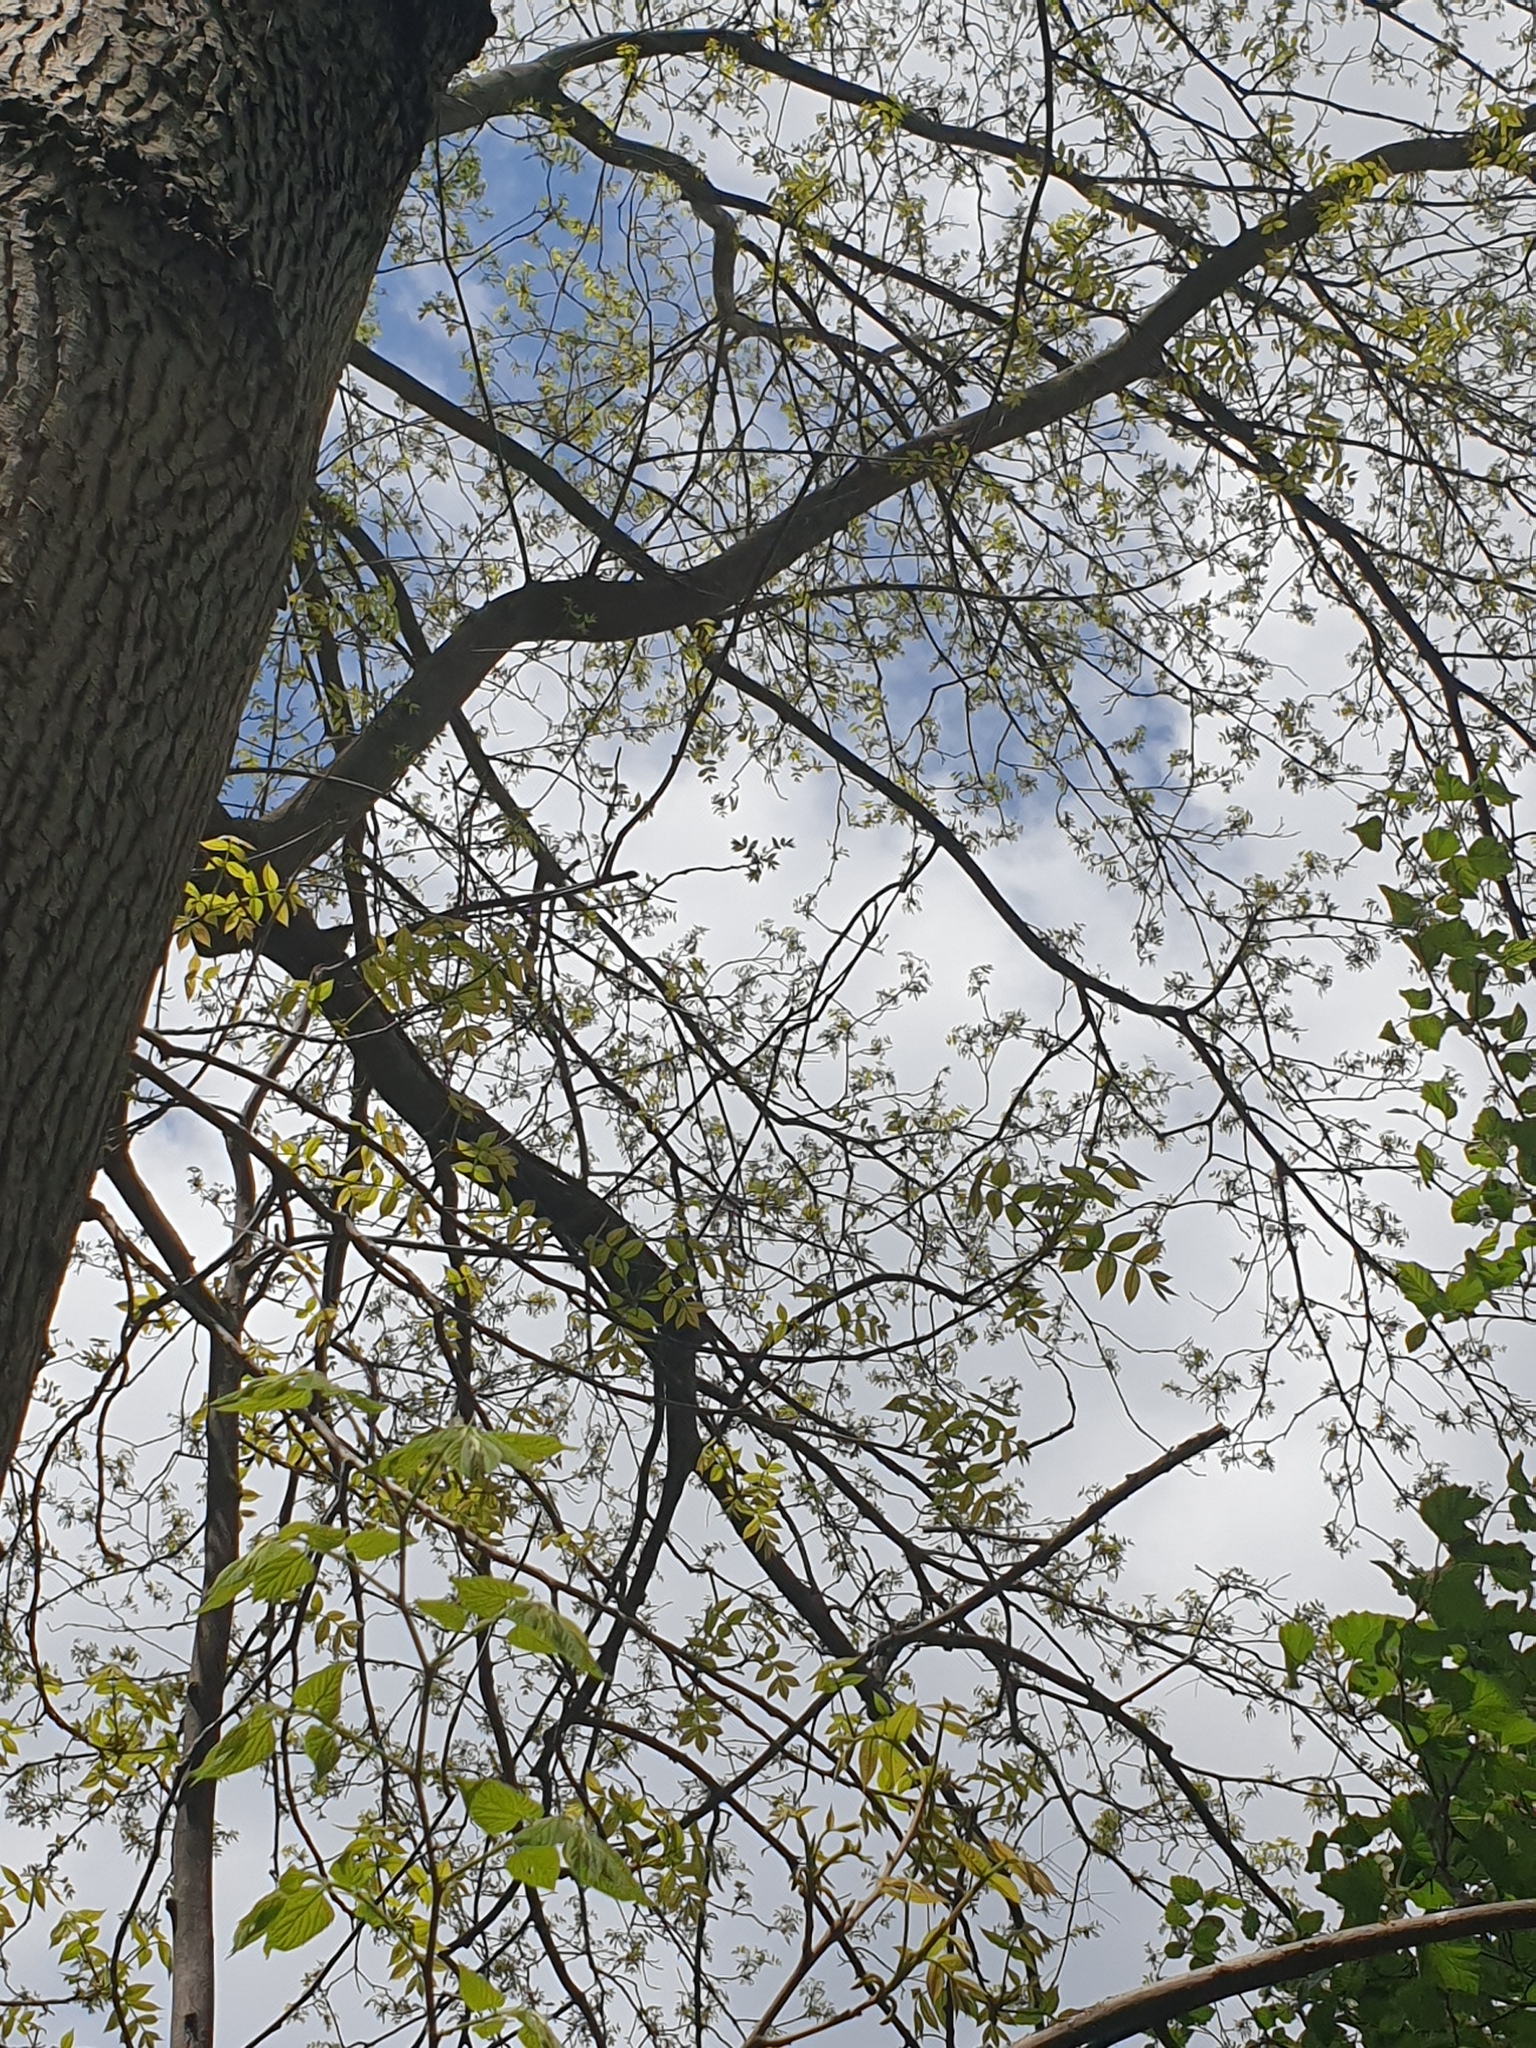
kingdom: Plantae
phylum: Tracheophyta
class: Magnoliopsida
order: Fagales
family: Juglandaceae
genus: Carya
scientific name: Carya cordiformis
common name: Bitternut hickory
